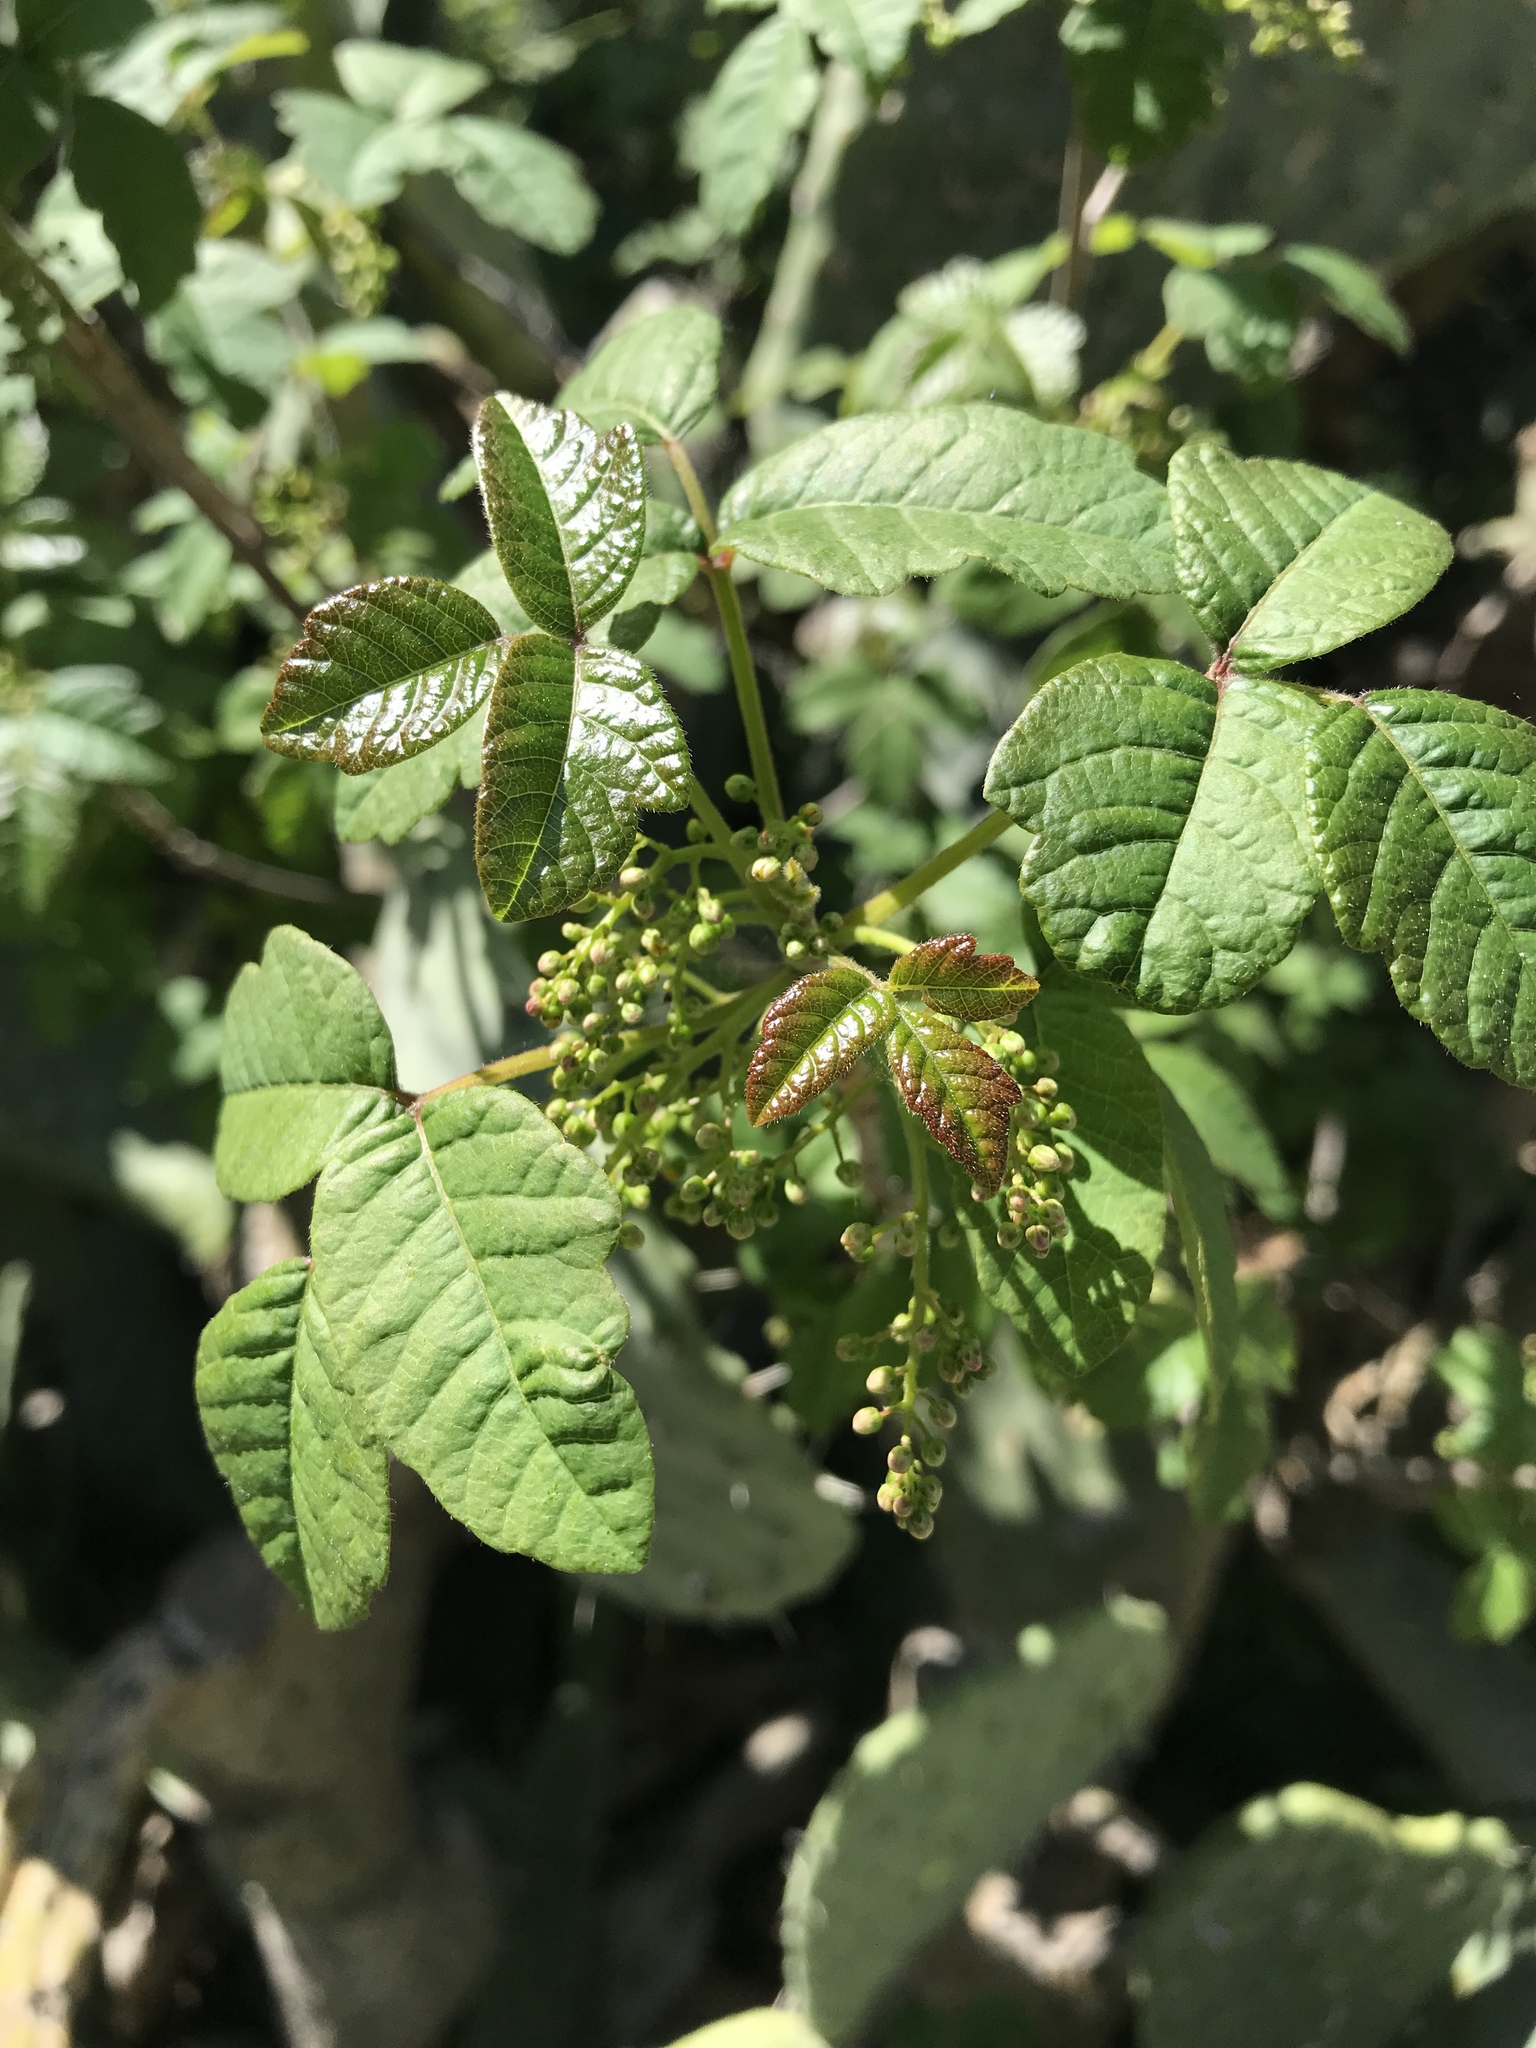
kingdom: Plantae
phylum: Tracheophyta
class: Magnoliopsida
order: Sapindales
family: Anacardiaceae
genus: Toxicodendron
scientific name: Toxicodendron diversilobum
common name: Pacific poison-oak
